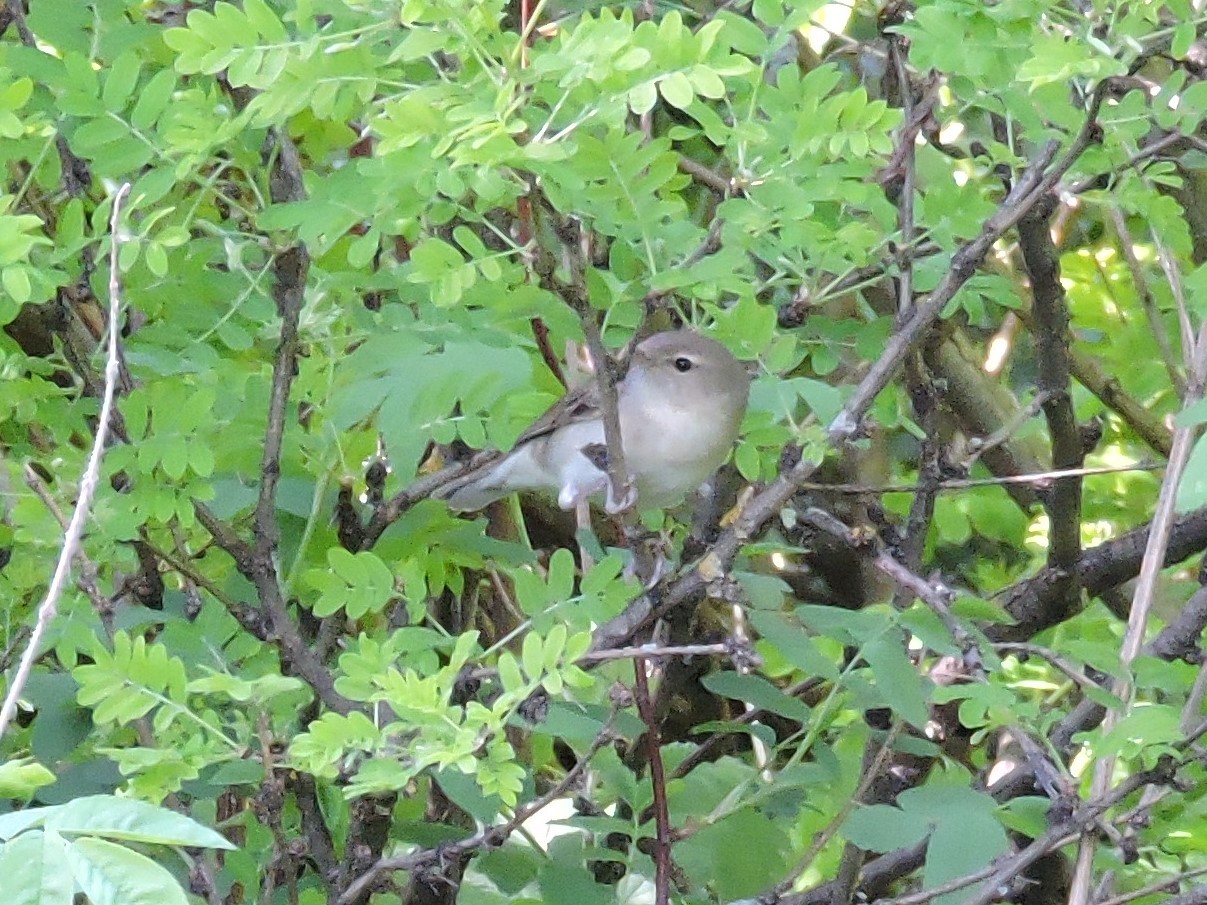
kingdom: Animalia
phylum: Chordata
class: Aves
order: Passeriformes
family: Sylviidae
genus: Sylvia
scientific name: Sylvia borin
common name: Garden warbler
